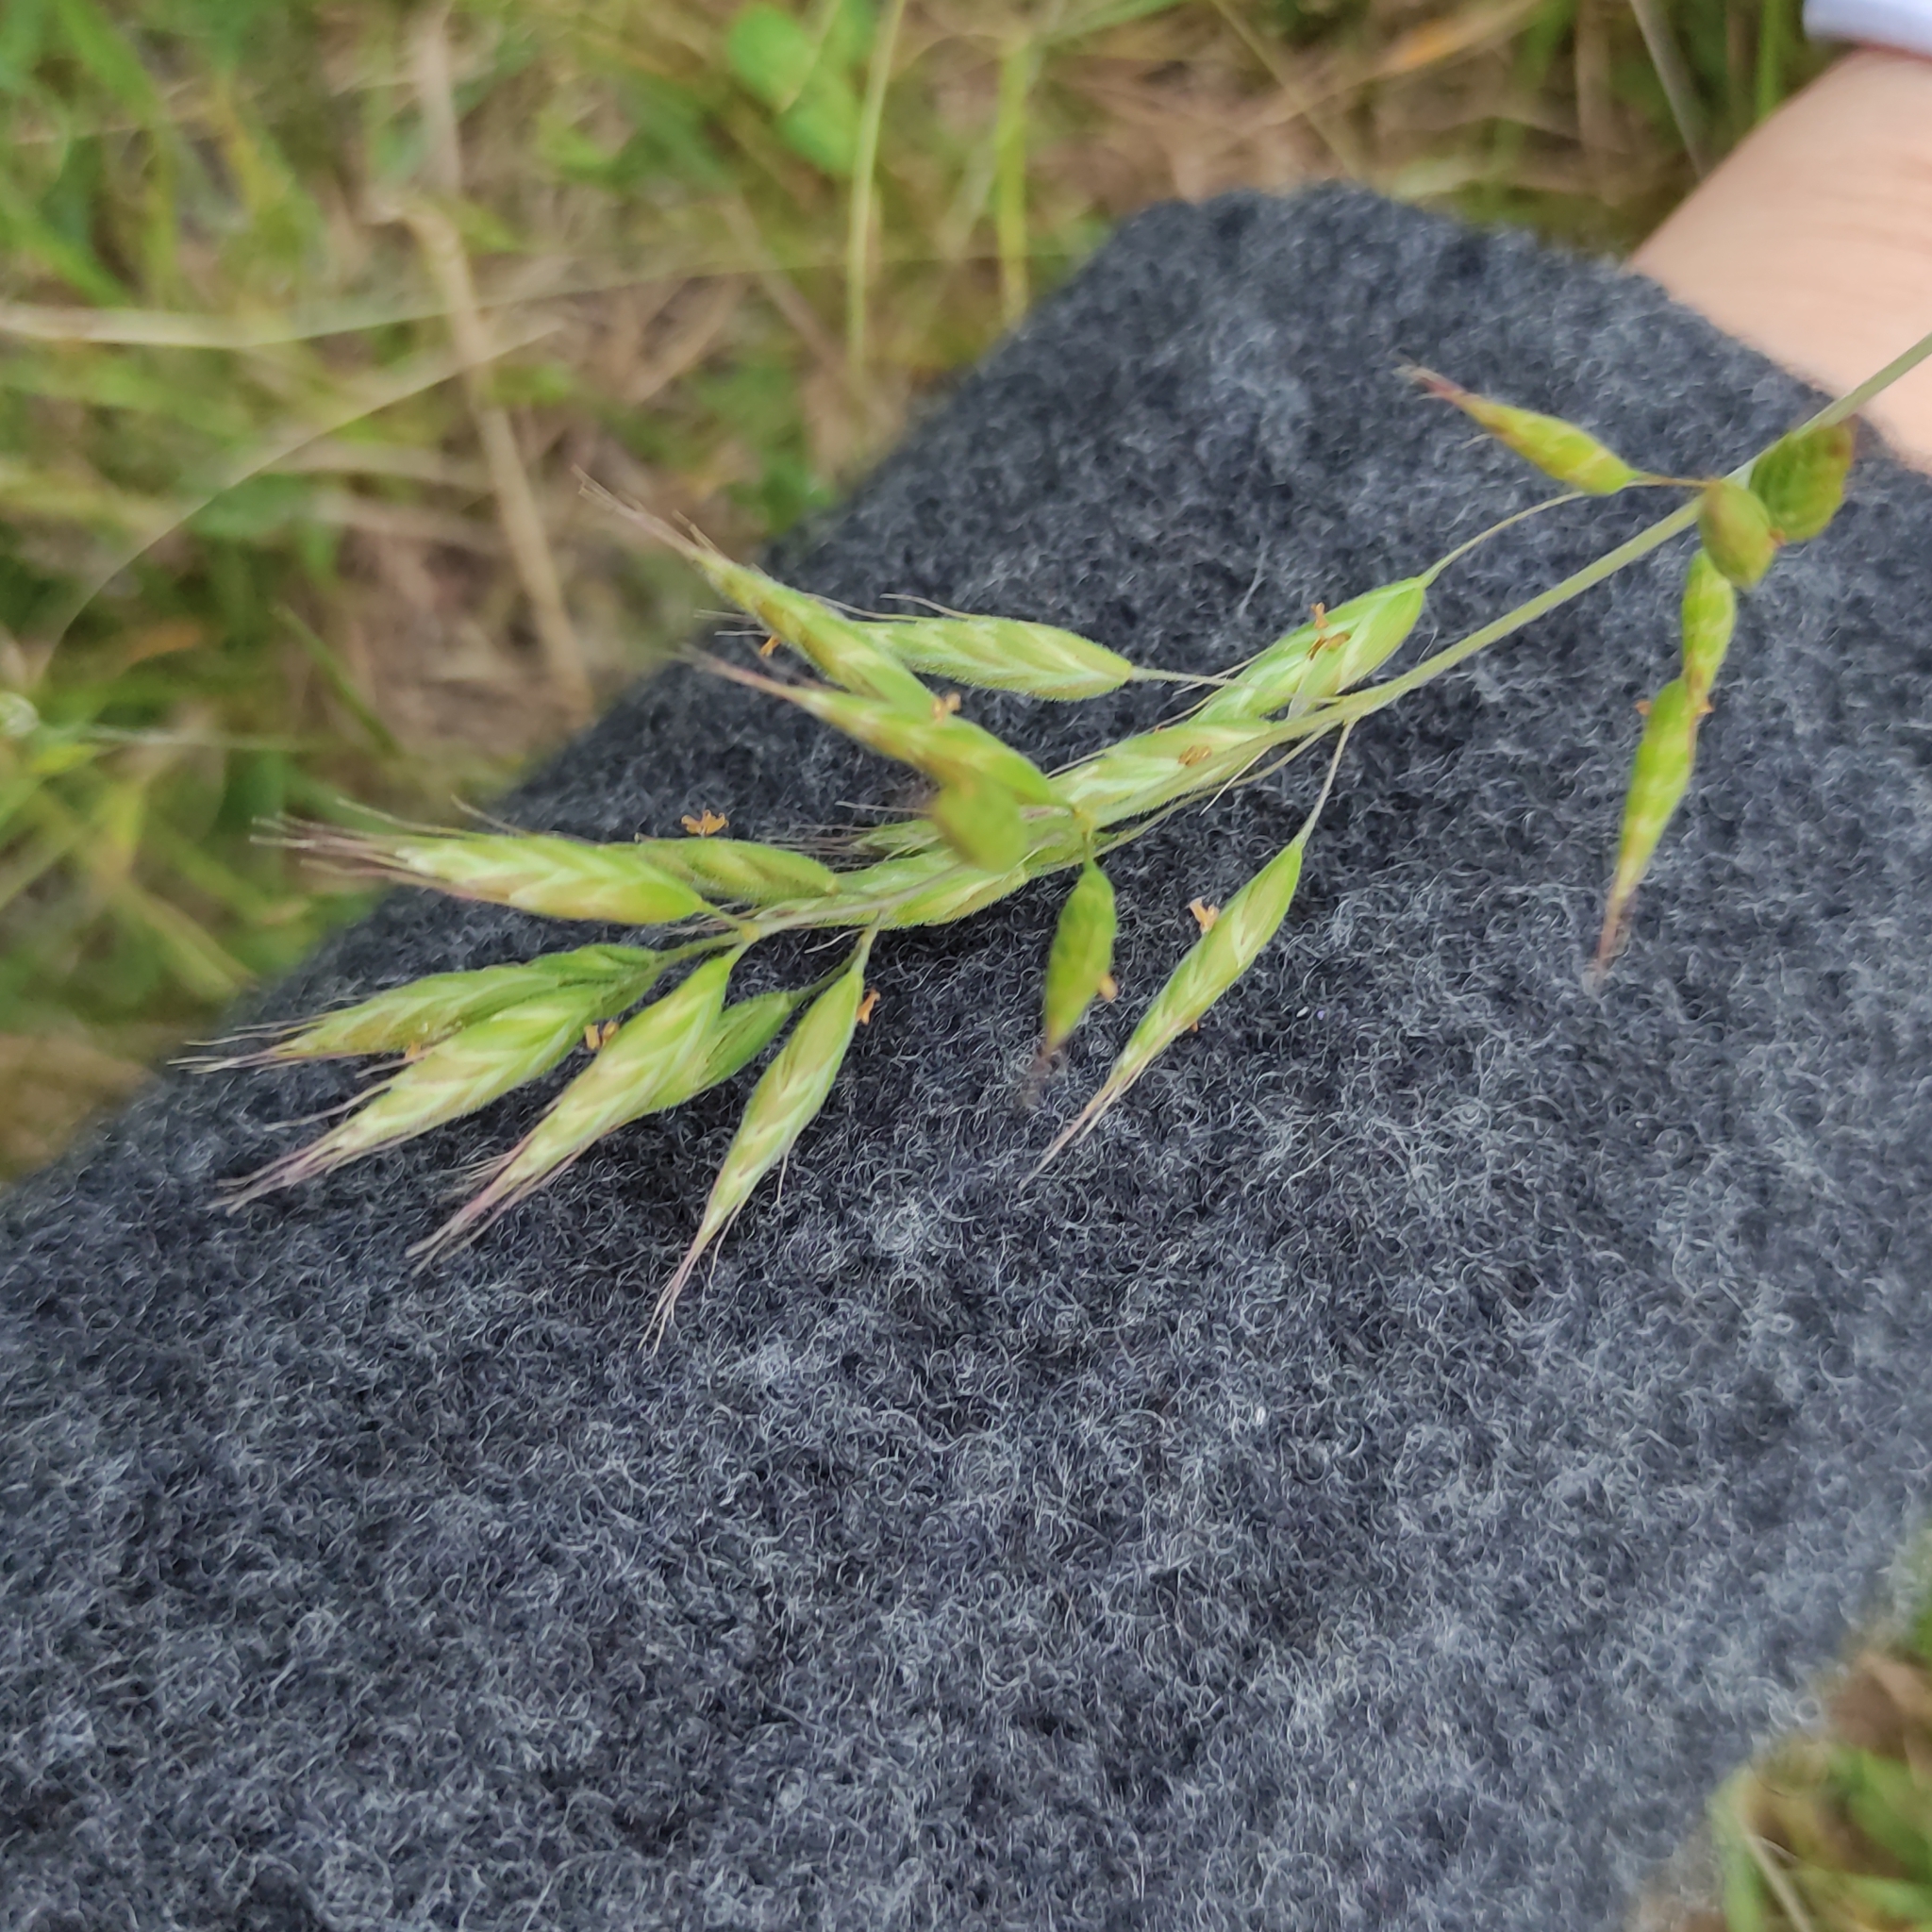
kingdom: Plantae
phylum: Tracheophyta
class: Liliopsida
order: Poales
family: Poaceae
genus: Bromus
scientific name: Bromus hordeaceus
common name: Soft brome
